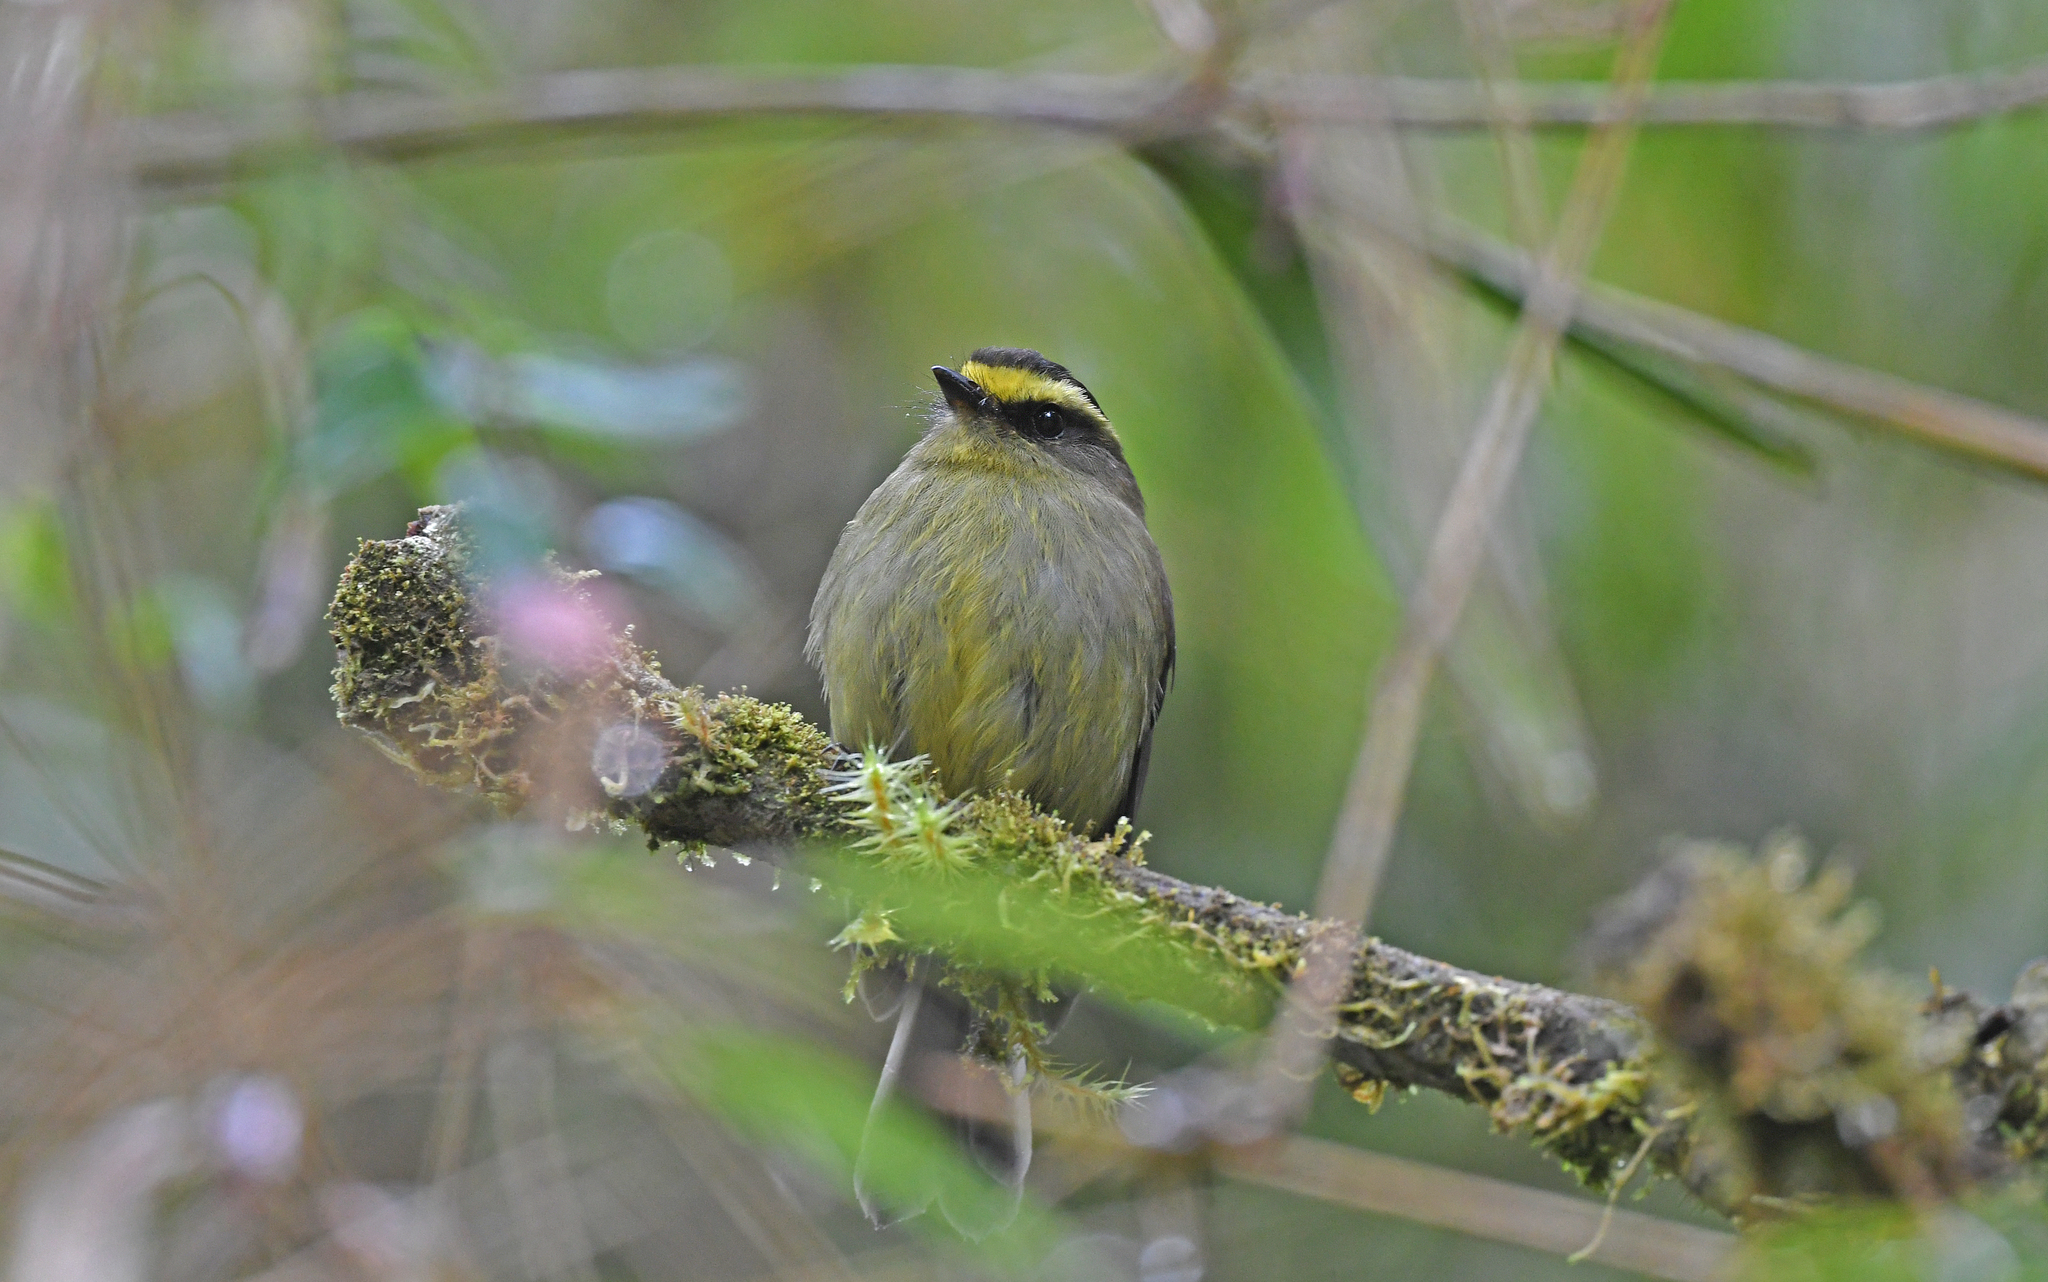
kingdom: Animalia
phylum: Chordata
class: Aves
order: Passeriformes
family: Tyrannidae
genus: Ochthoeca
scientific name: Ochthoeca diadema
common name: Yellow-bellied chat-tyrant
